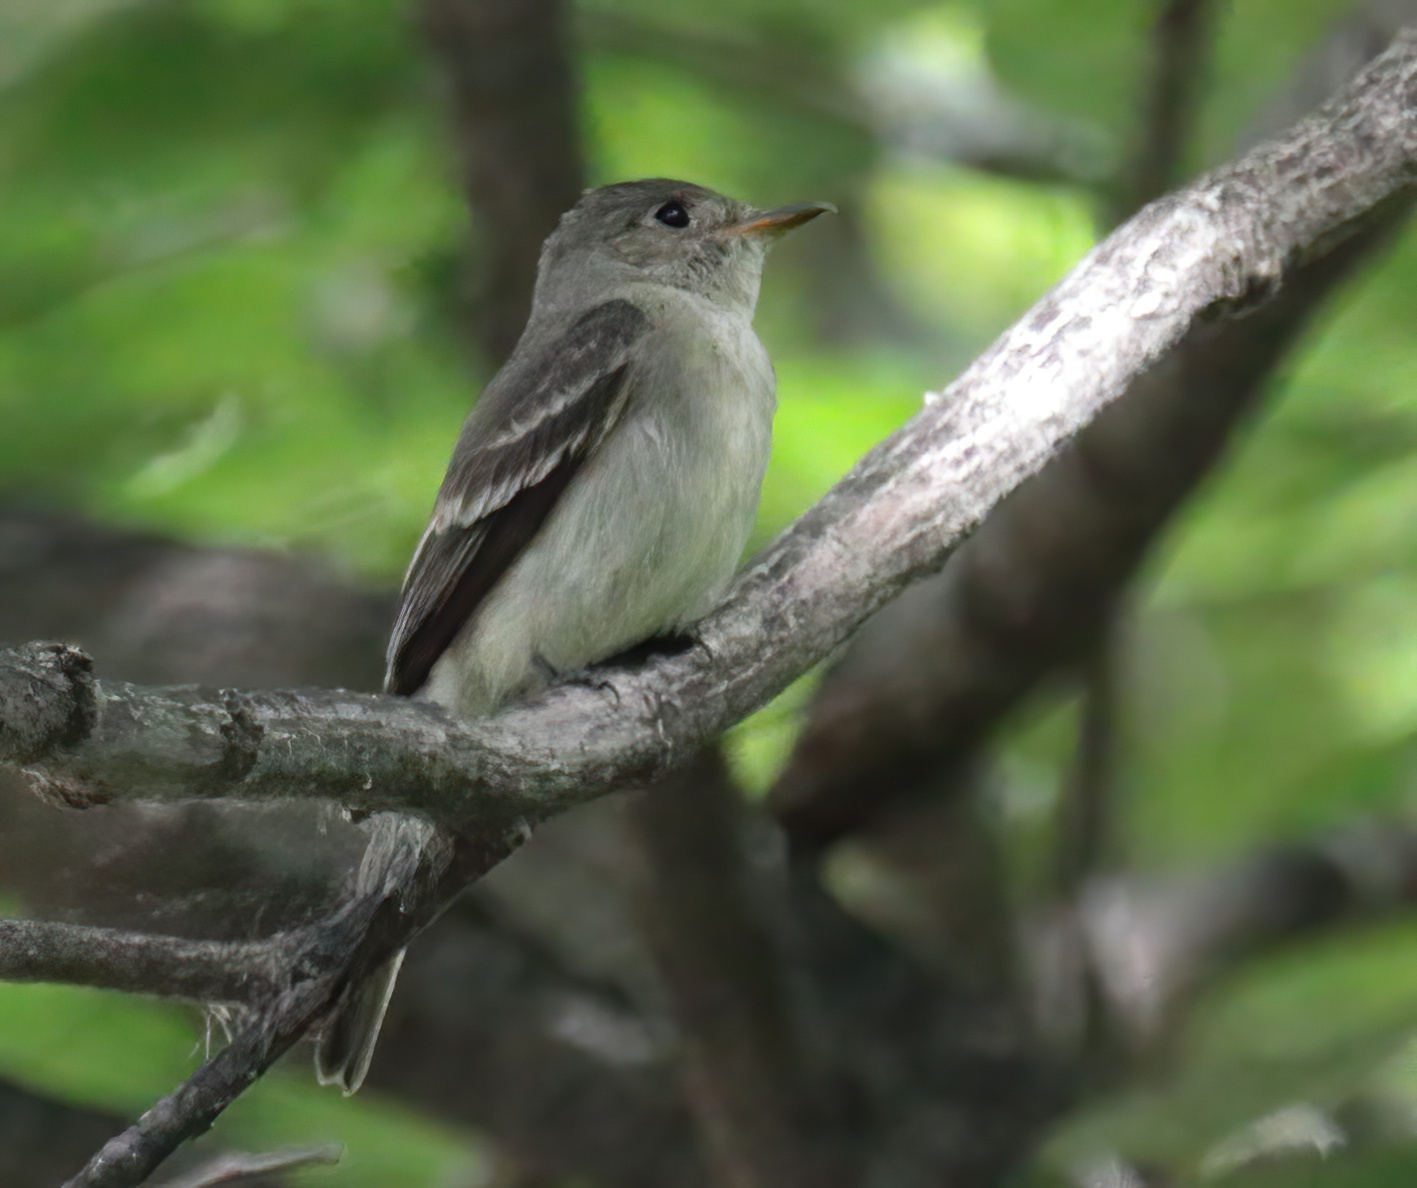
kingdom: Animalia
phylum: Chordata
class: Aves
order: Passeriformes
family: Tyrannidae
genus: Contopus
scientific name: Contopus virens
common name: Eastern wood-pewee
